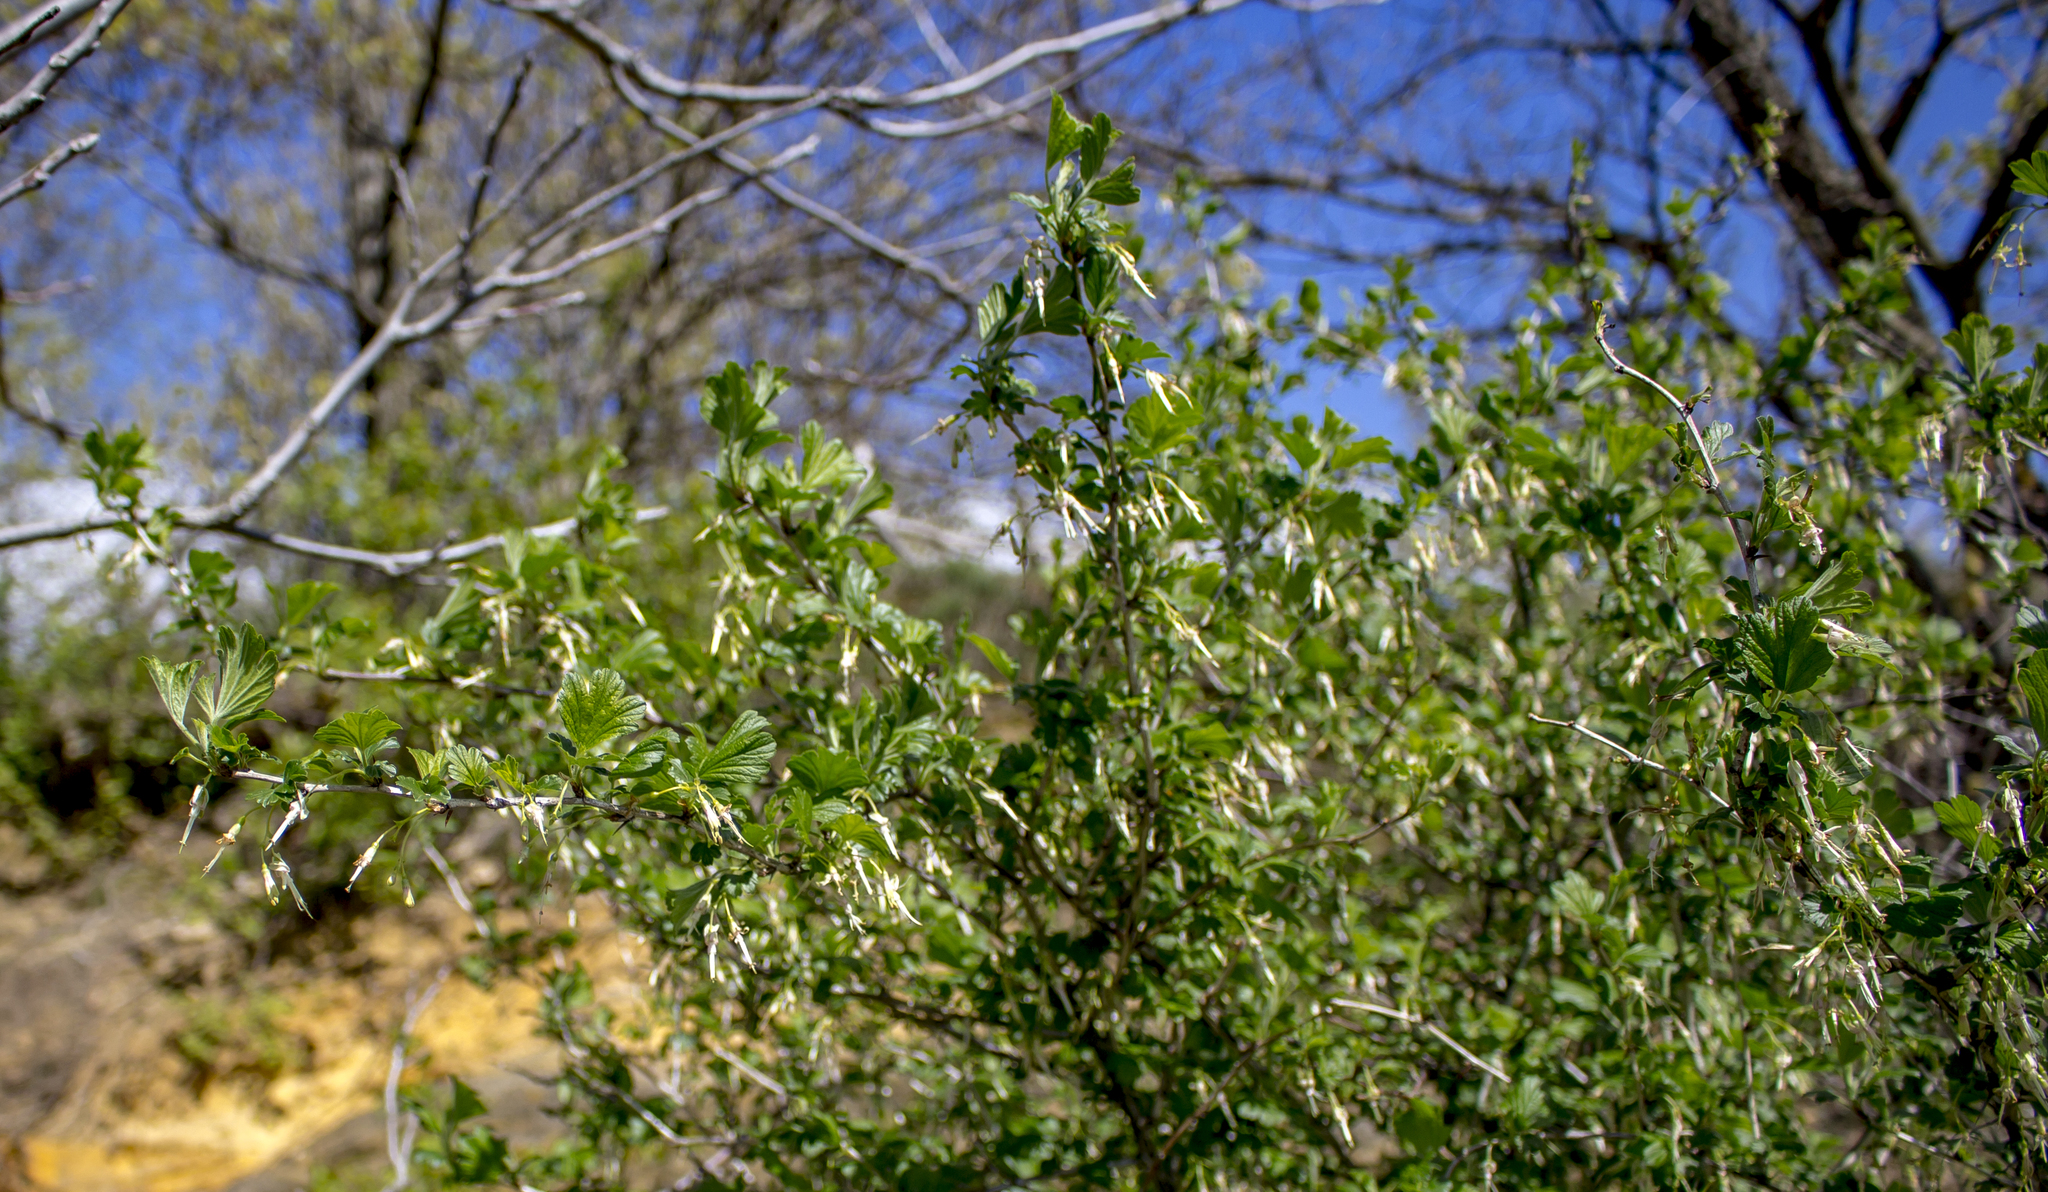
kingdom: Plantae
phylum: Tracheophyta
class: Magnoliopsida
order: Saxifragales
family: Grossulariaceae
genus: Ribes
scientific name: Ribes missouriense
